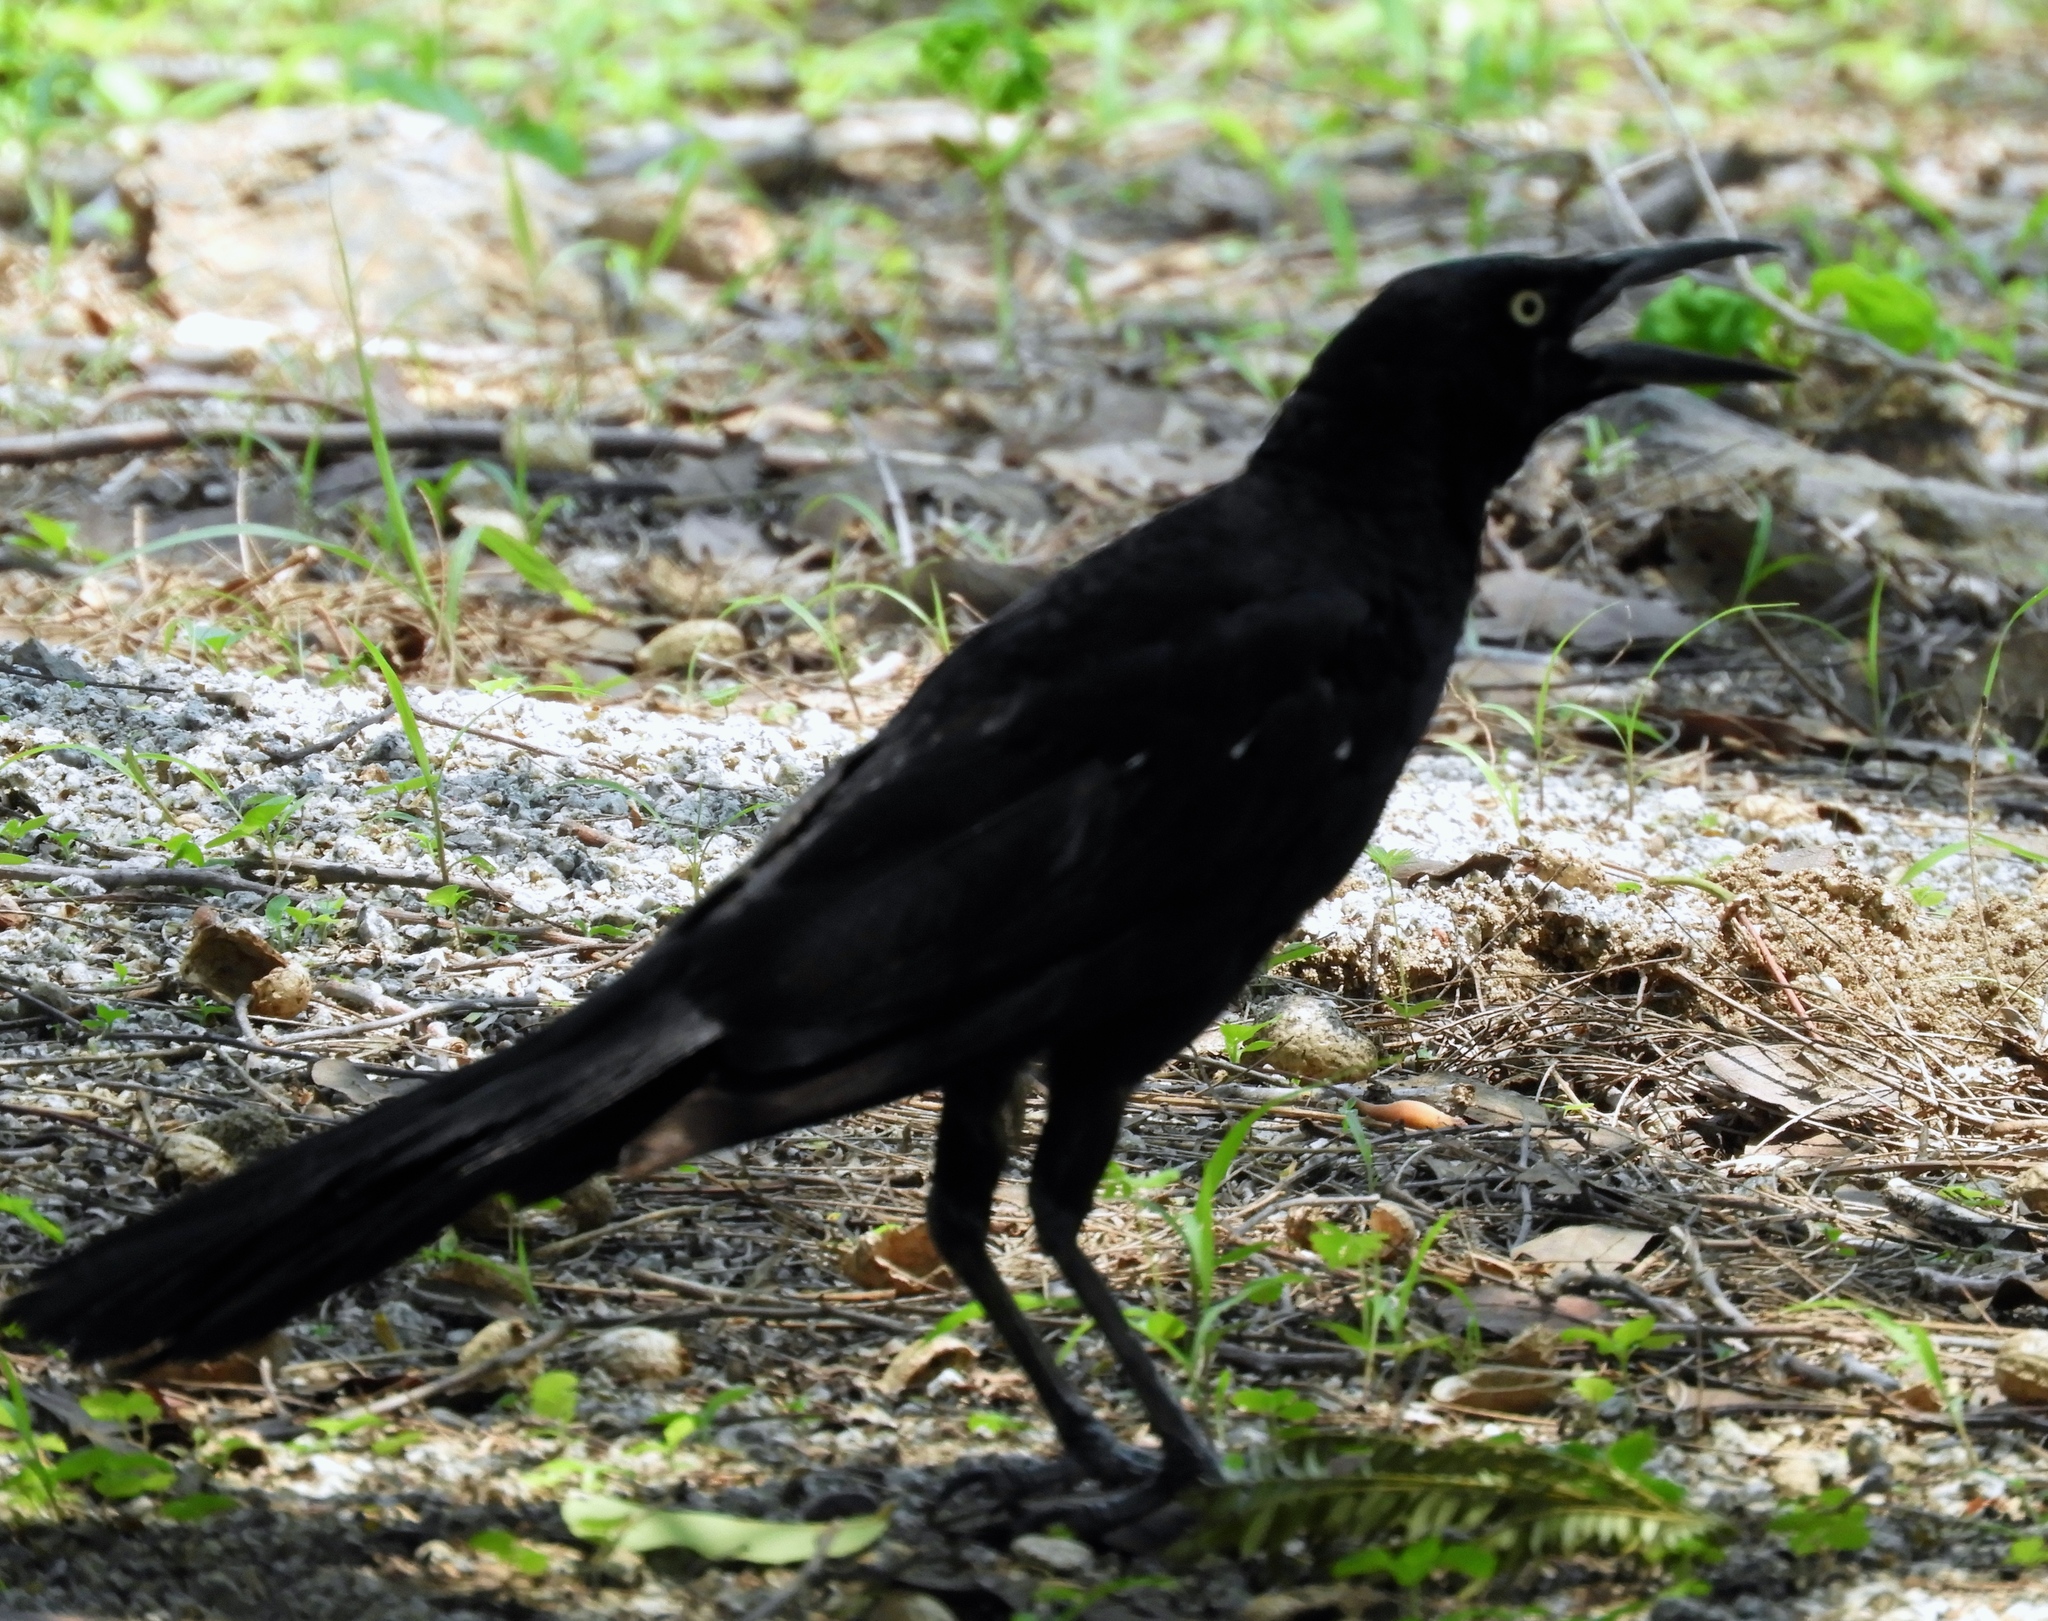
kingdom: Animalia
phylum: Chordata
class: Aves
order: Passeriformes
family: Icteridae
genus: Quiscalus
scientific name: Quiscalus mexicanus
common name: Great-tailed grackle
